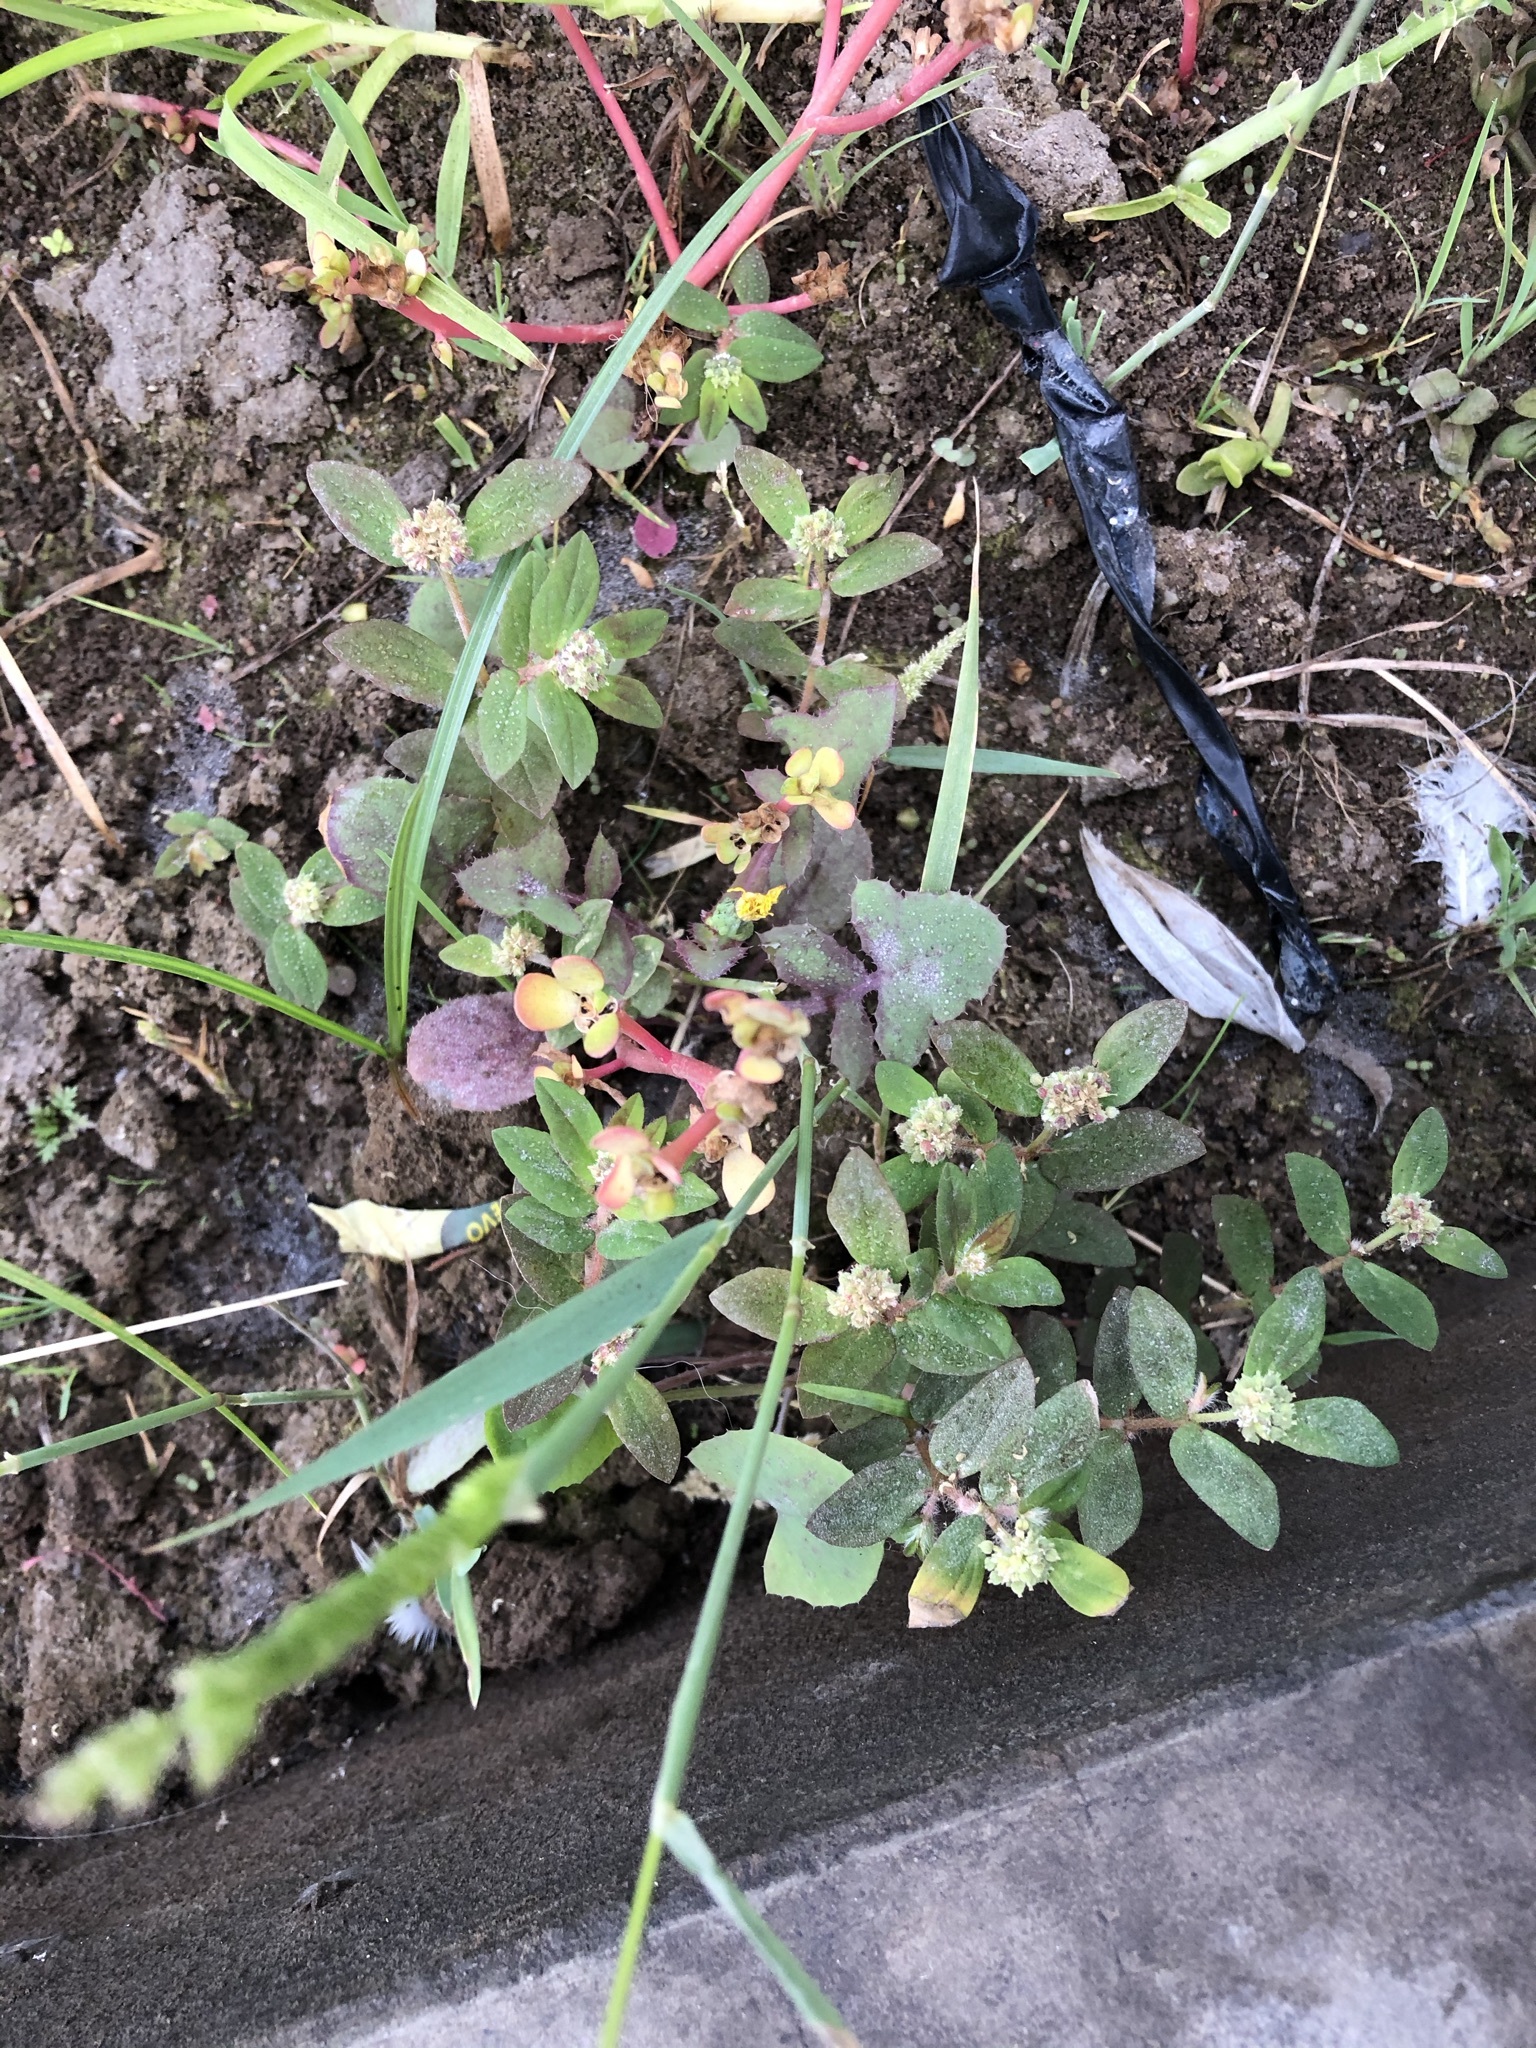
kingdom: Plantae
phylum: Tracheophyta
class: Magnoliopsida
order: Malpighiales
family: Euphorbiaceae
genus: Euphorbia
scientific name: Euphorbia ophthalmica
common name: Florida hammock sandmat
